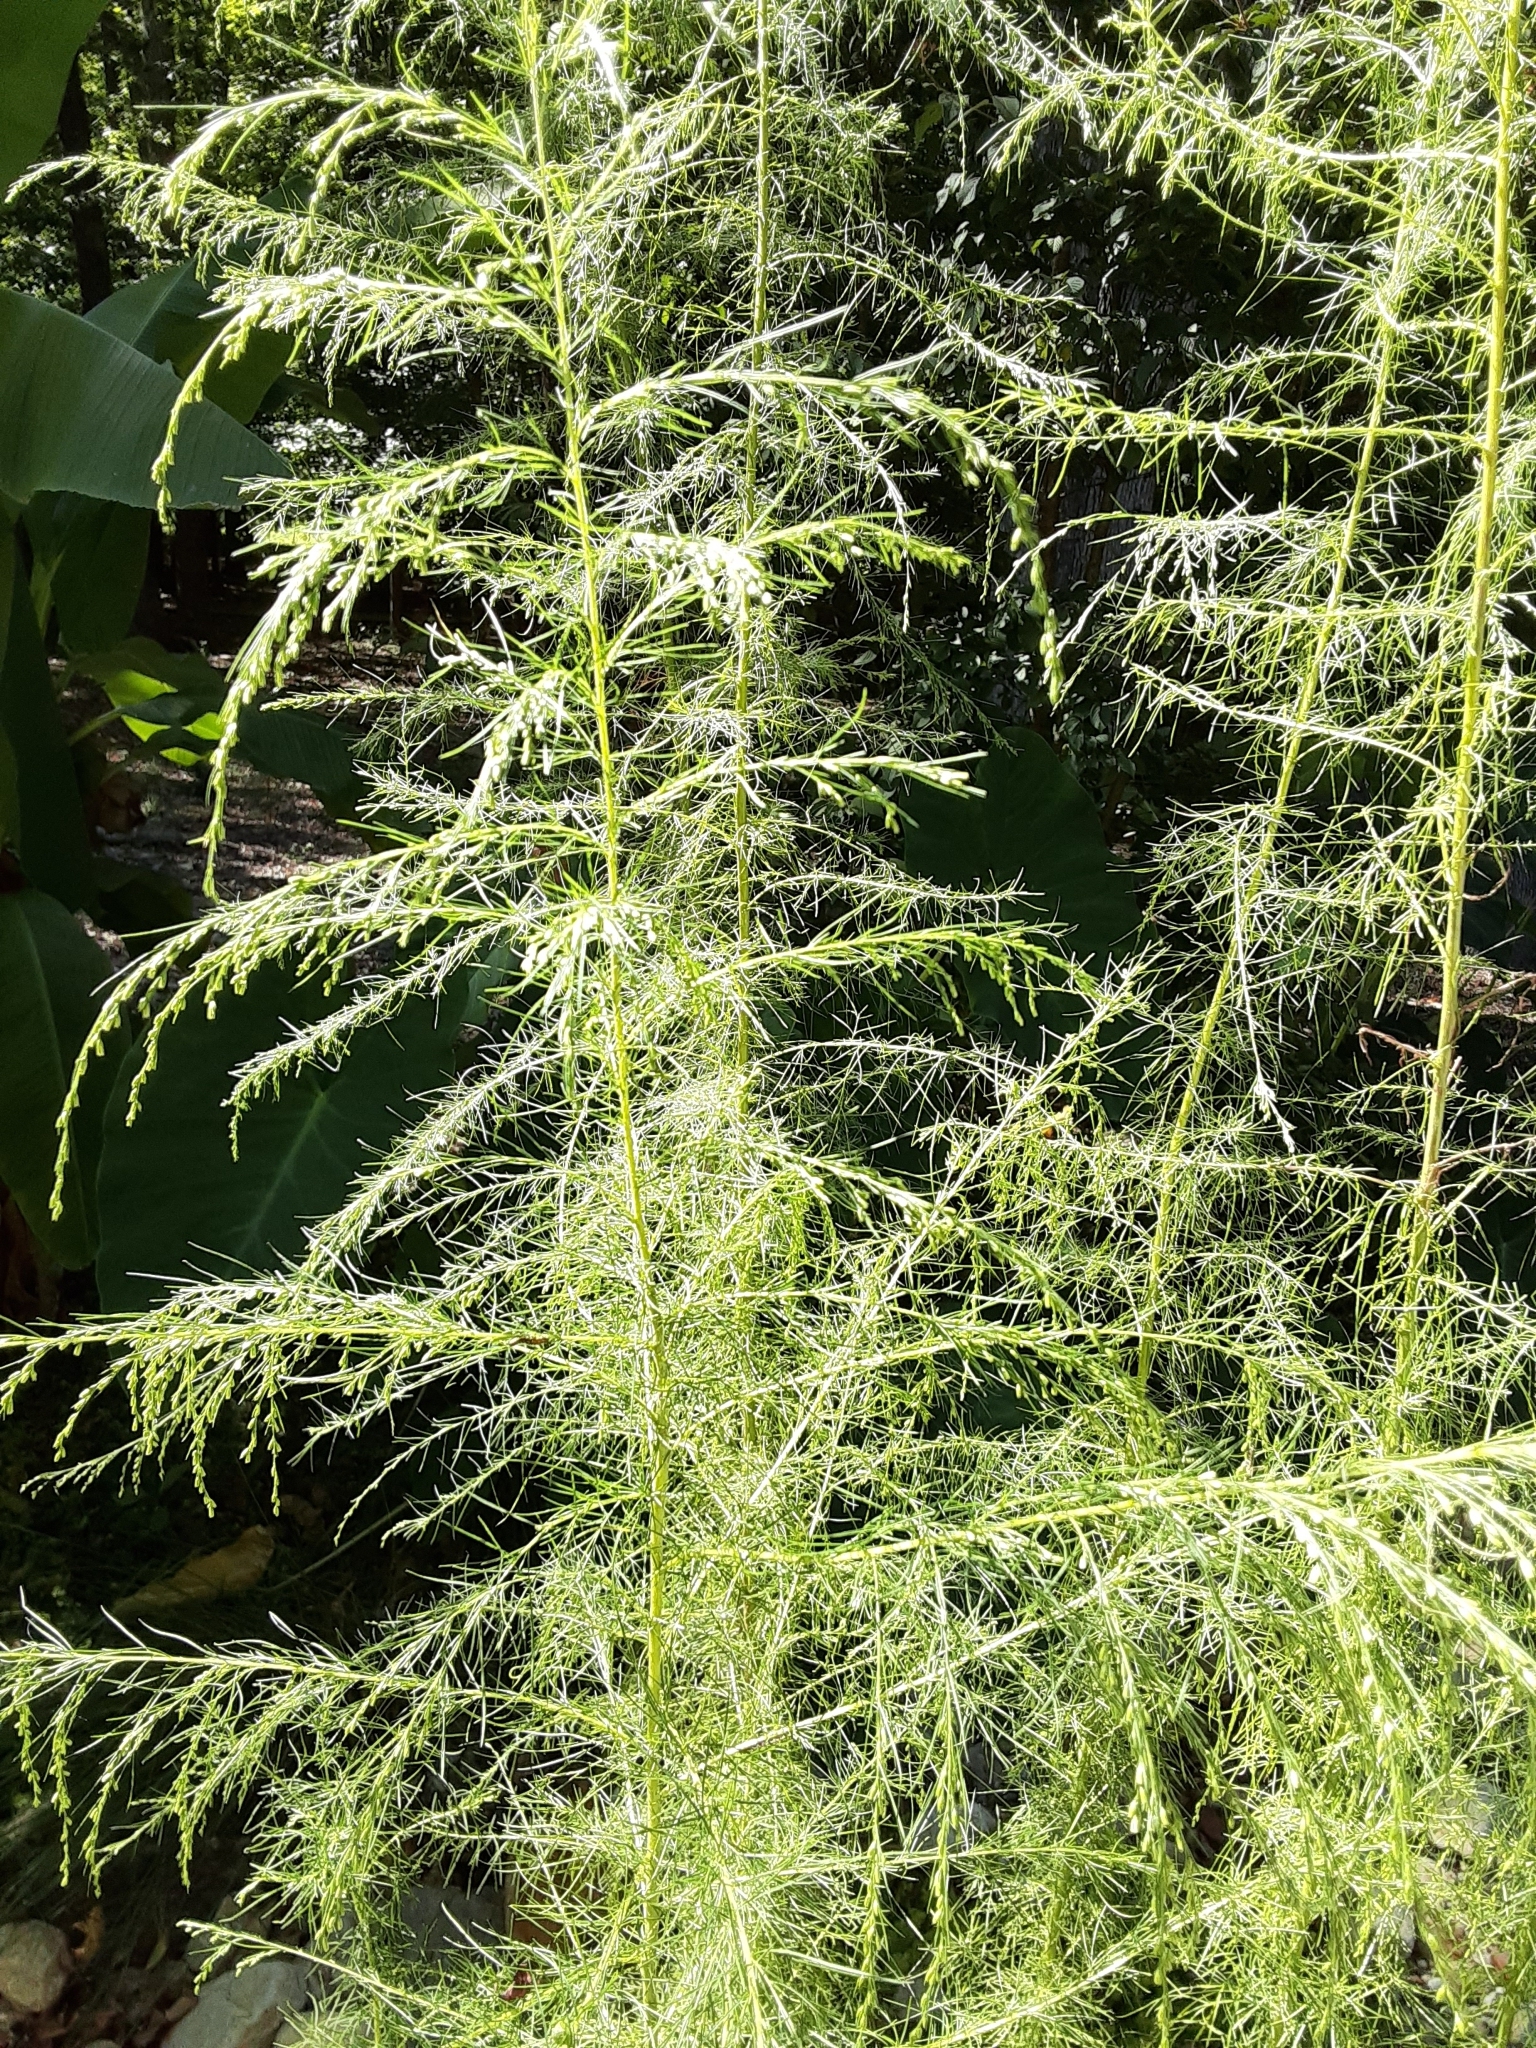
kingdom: Plantae
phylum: Tracheophyta
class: Magnoliopsida
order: Asterales
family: Asteraceae
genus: Eupatorium
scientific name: Eupatorium capillifolium
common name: Dog-fennel
